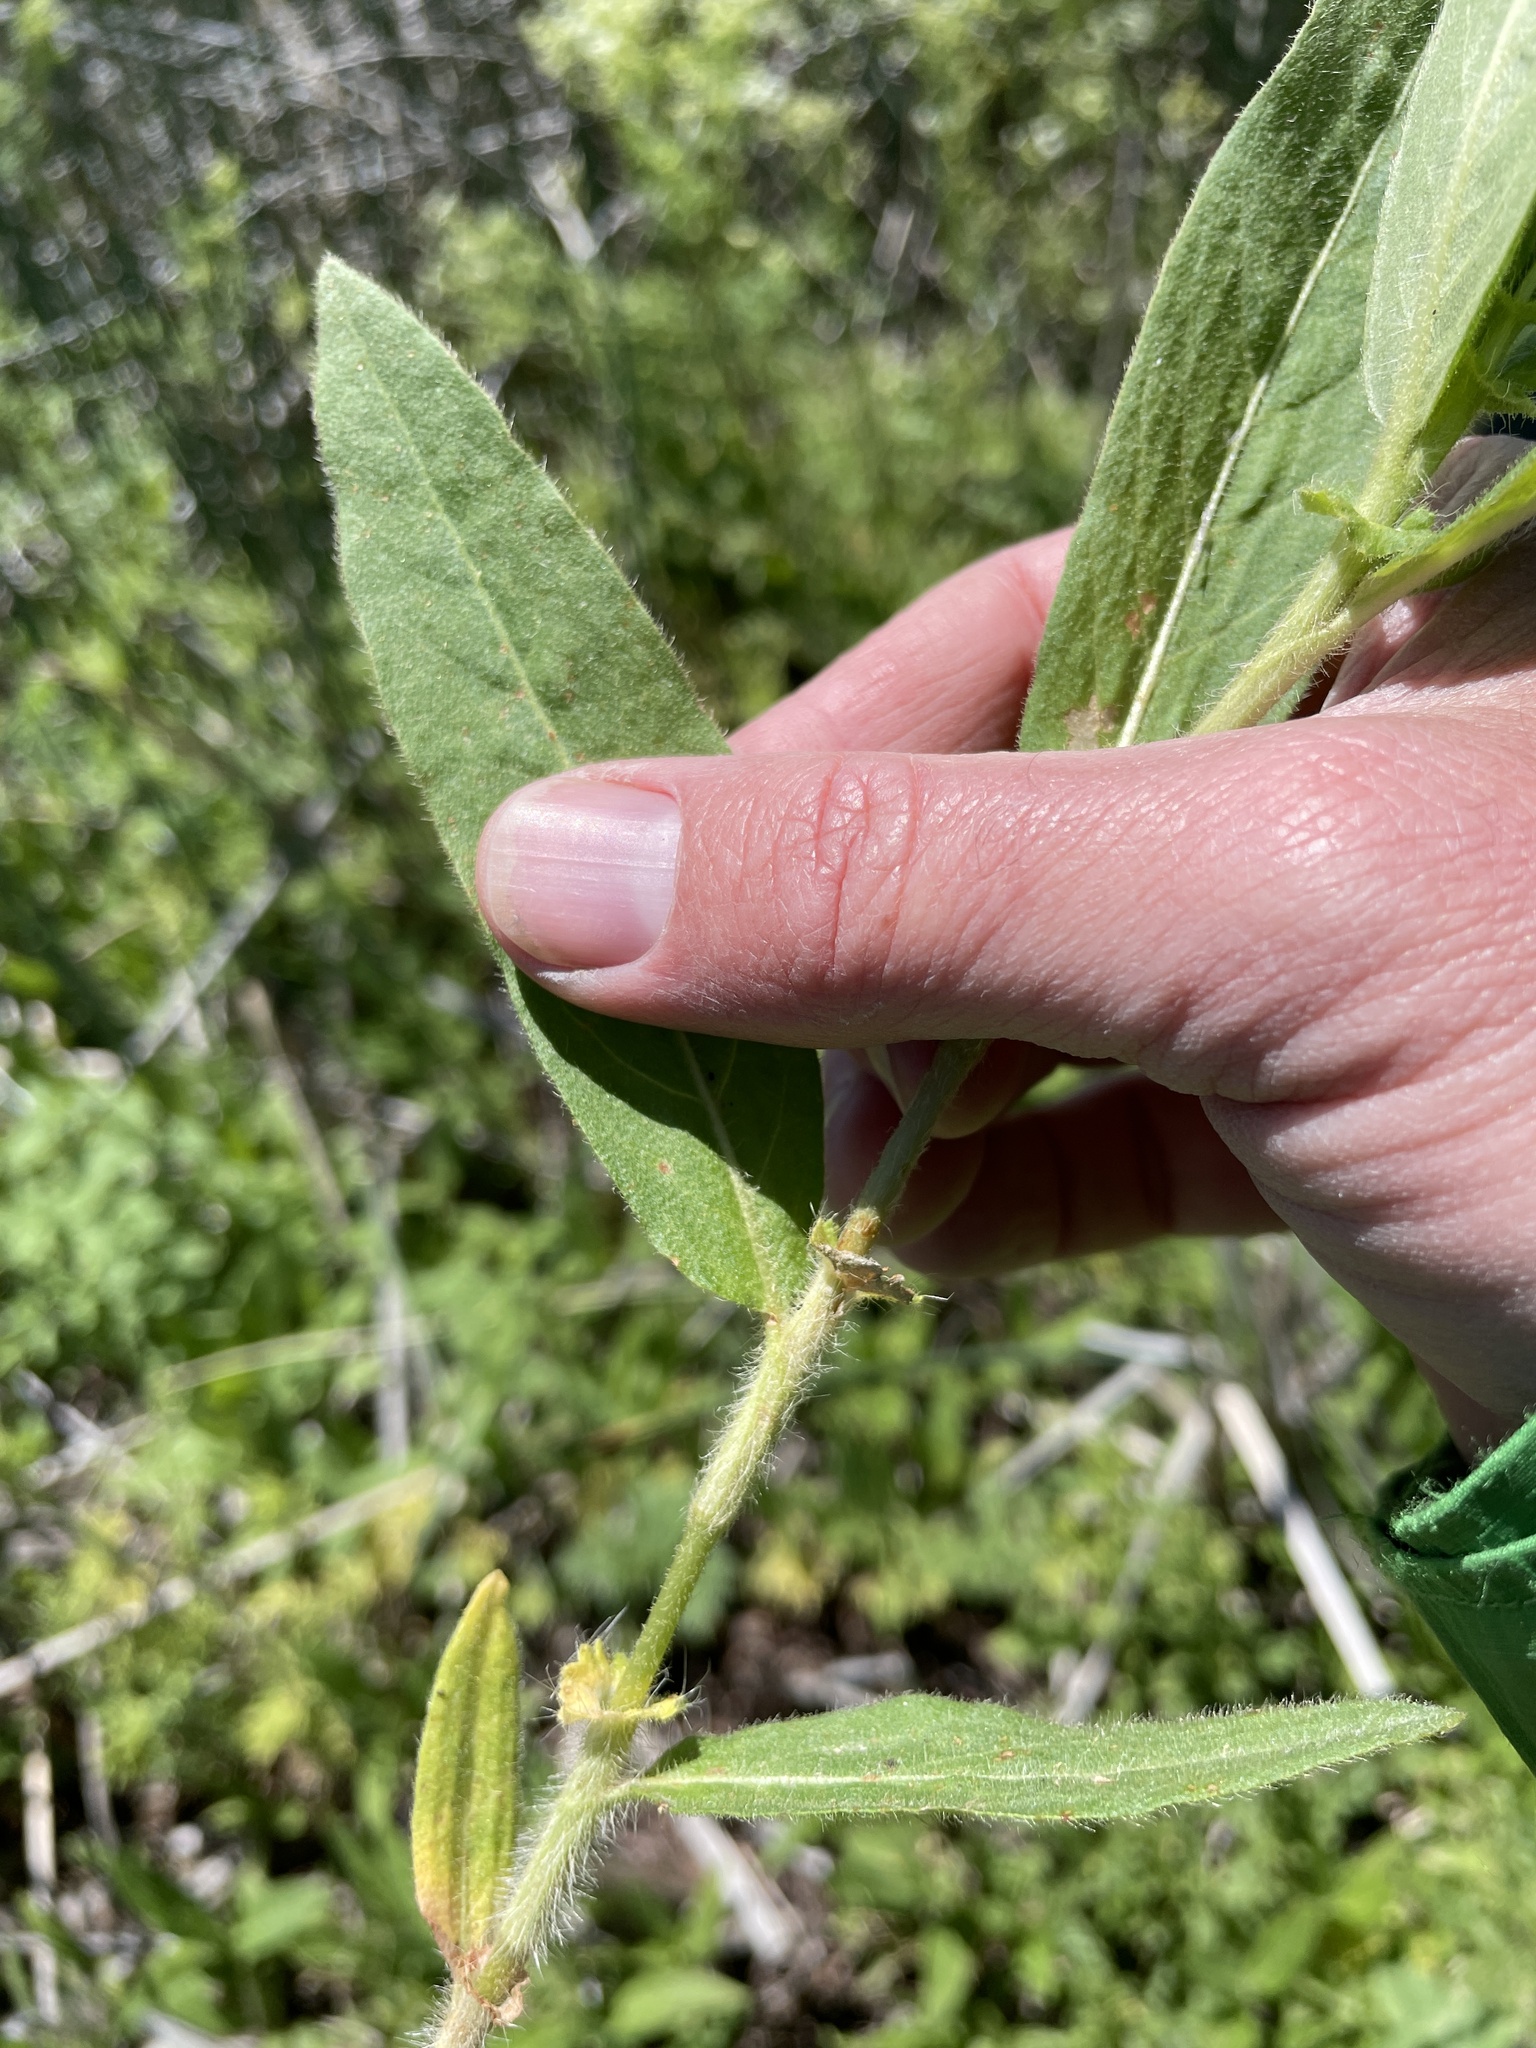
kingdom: Plantae
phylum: Tracheophyta
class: Magnoliopsida
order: Caryophyllales
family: Polygonaceae
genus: Persicaria
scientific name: Persicaria amphibia
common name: Amphibious bistort
